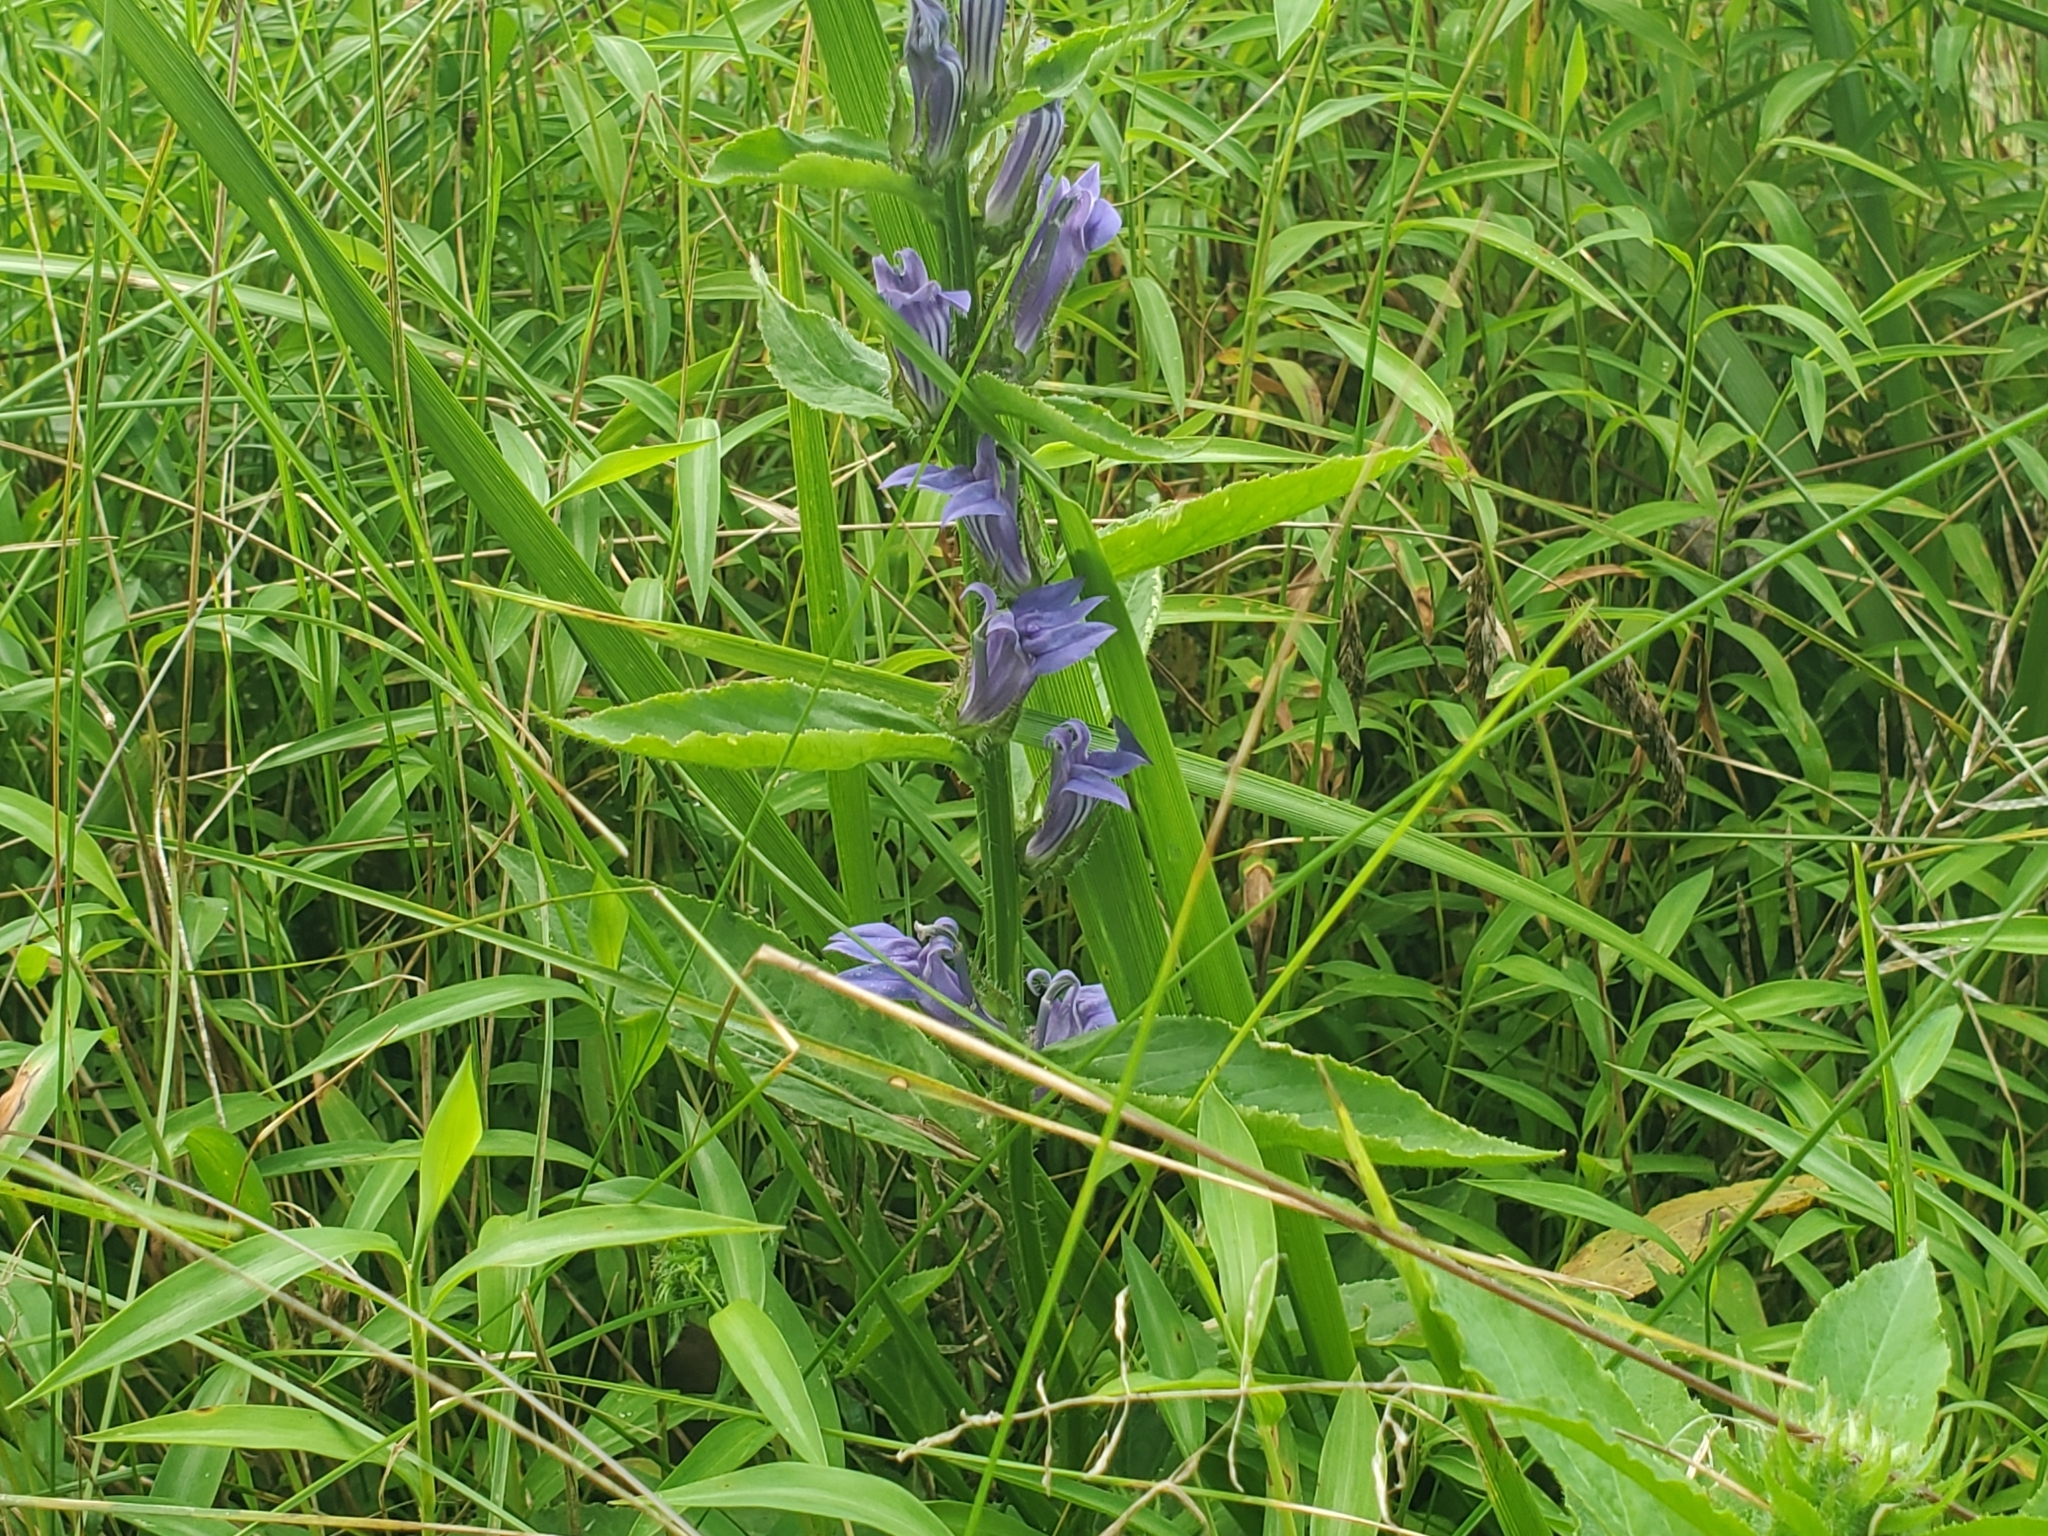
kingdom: Plantae
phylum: Tracheophyta
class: Magnoliopsida
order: Asterales
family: Campanulaceae
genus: Lobelia
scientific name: Lobelia siphilitica
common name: Great lobelia
